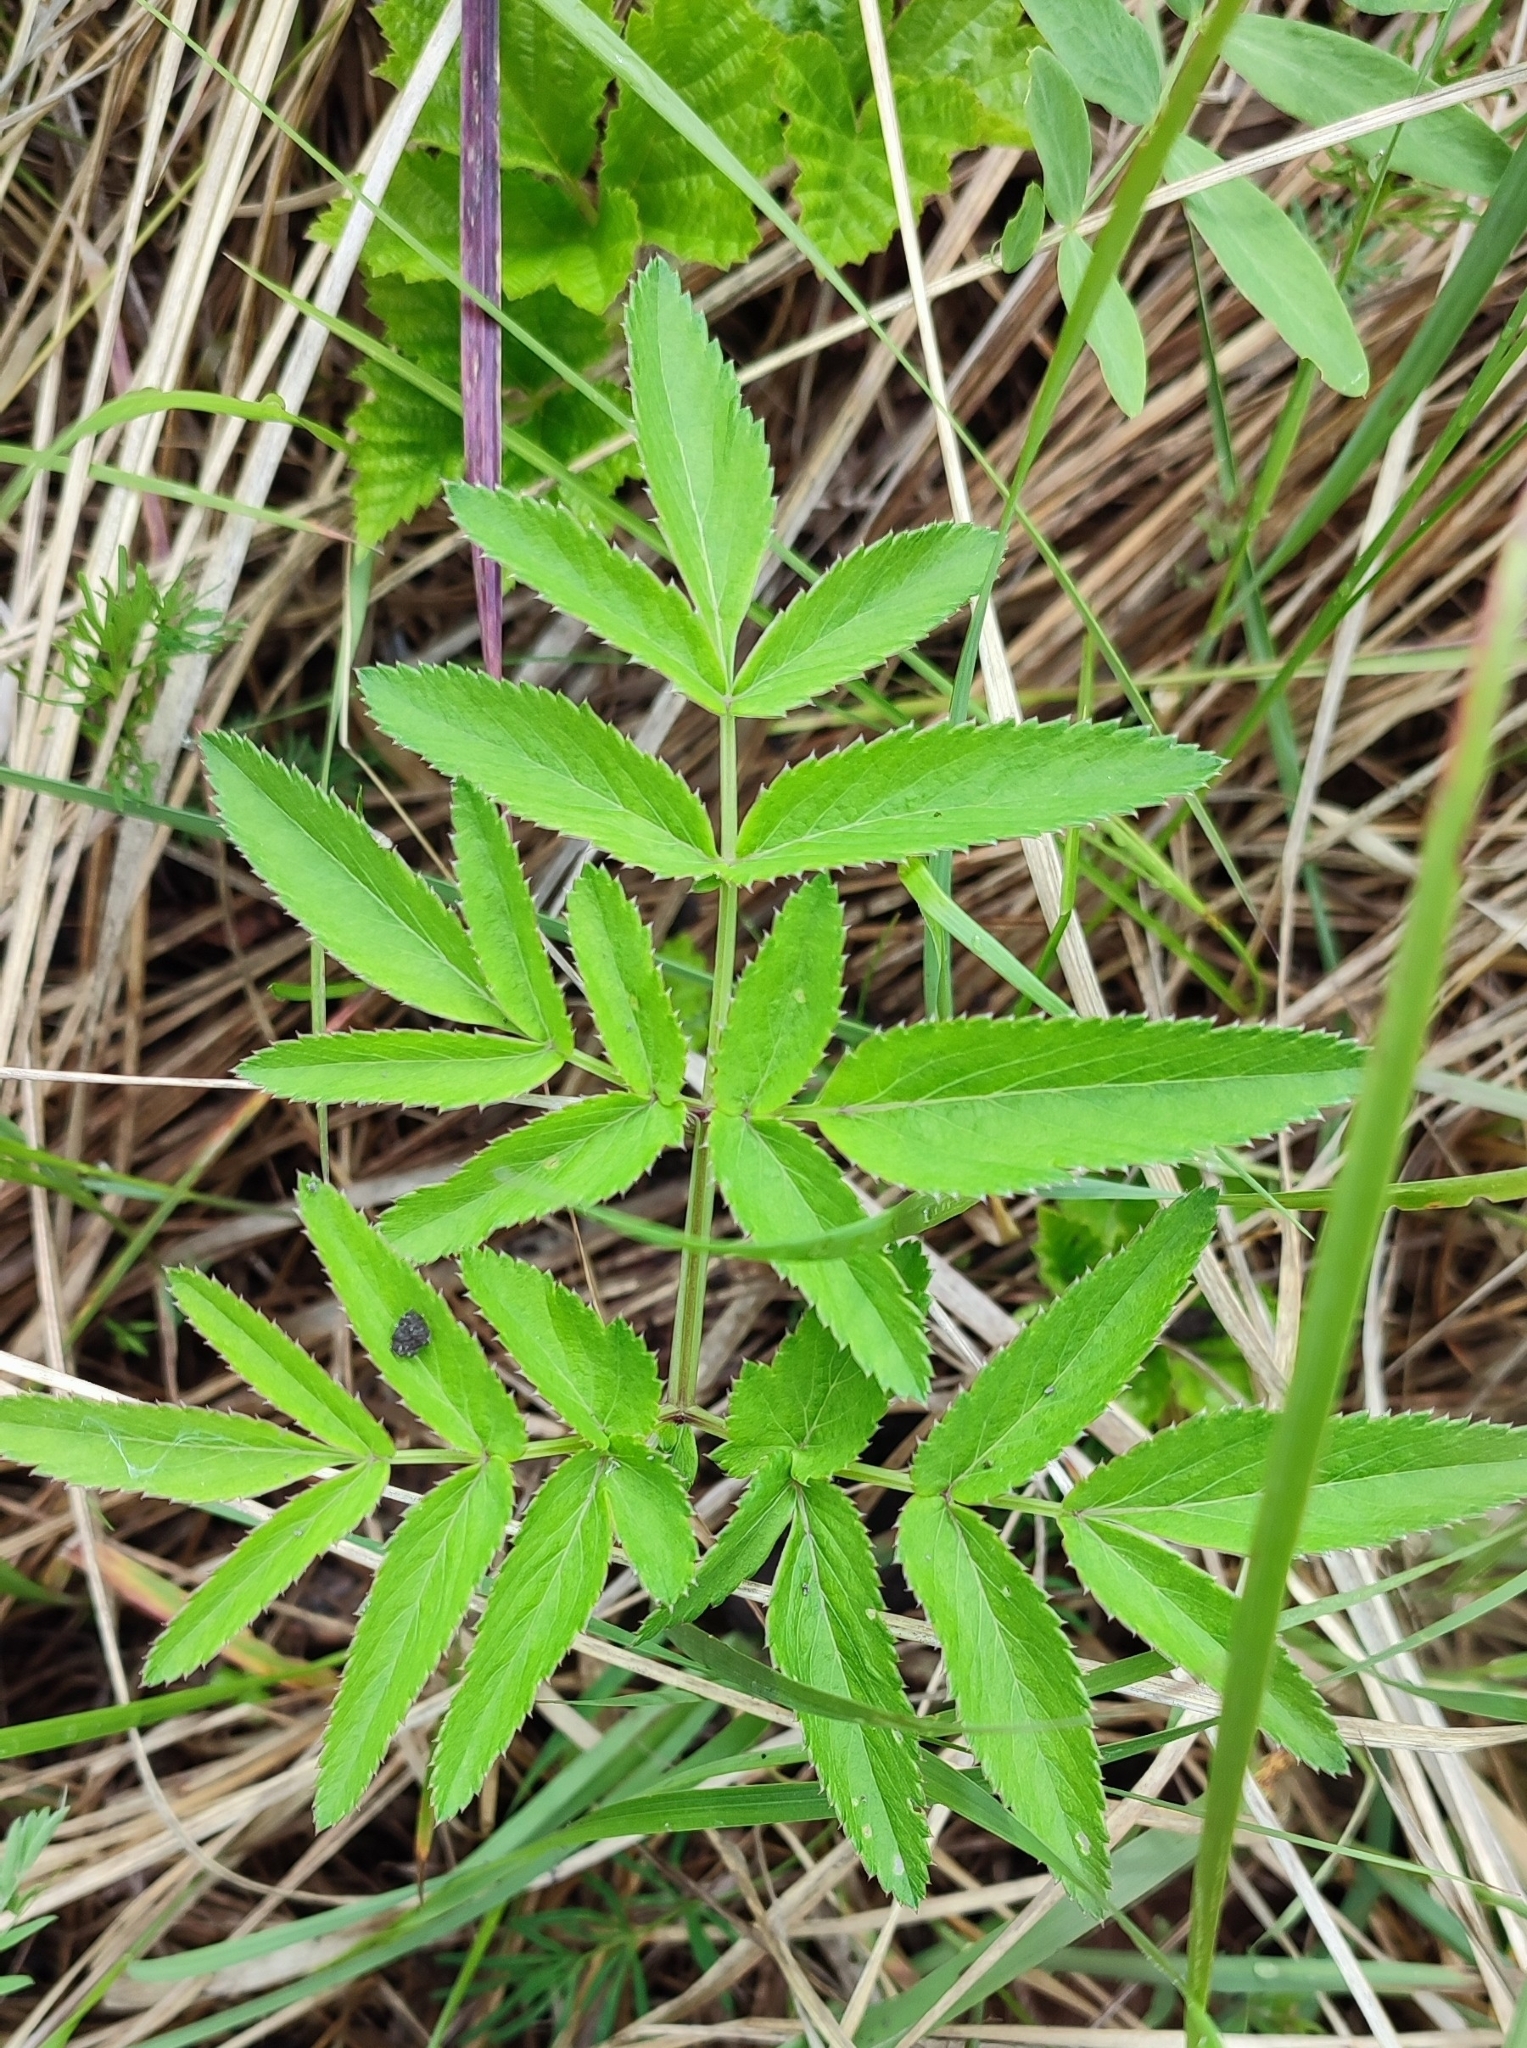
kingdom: Plantae
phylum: Tracheophyta
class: Magnoliopsida
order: Apiales
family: Apiaceae
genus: Angelica
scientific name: Angelica sylvestris
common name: Wild angelica
